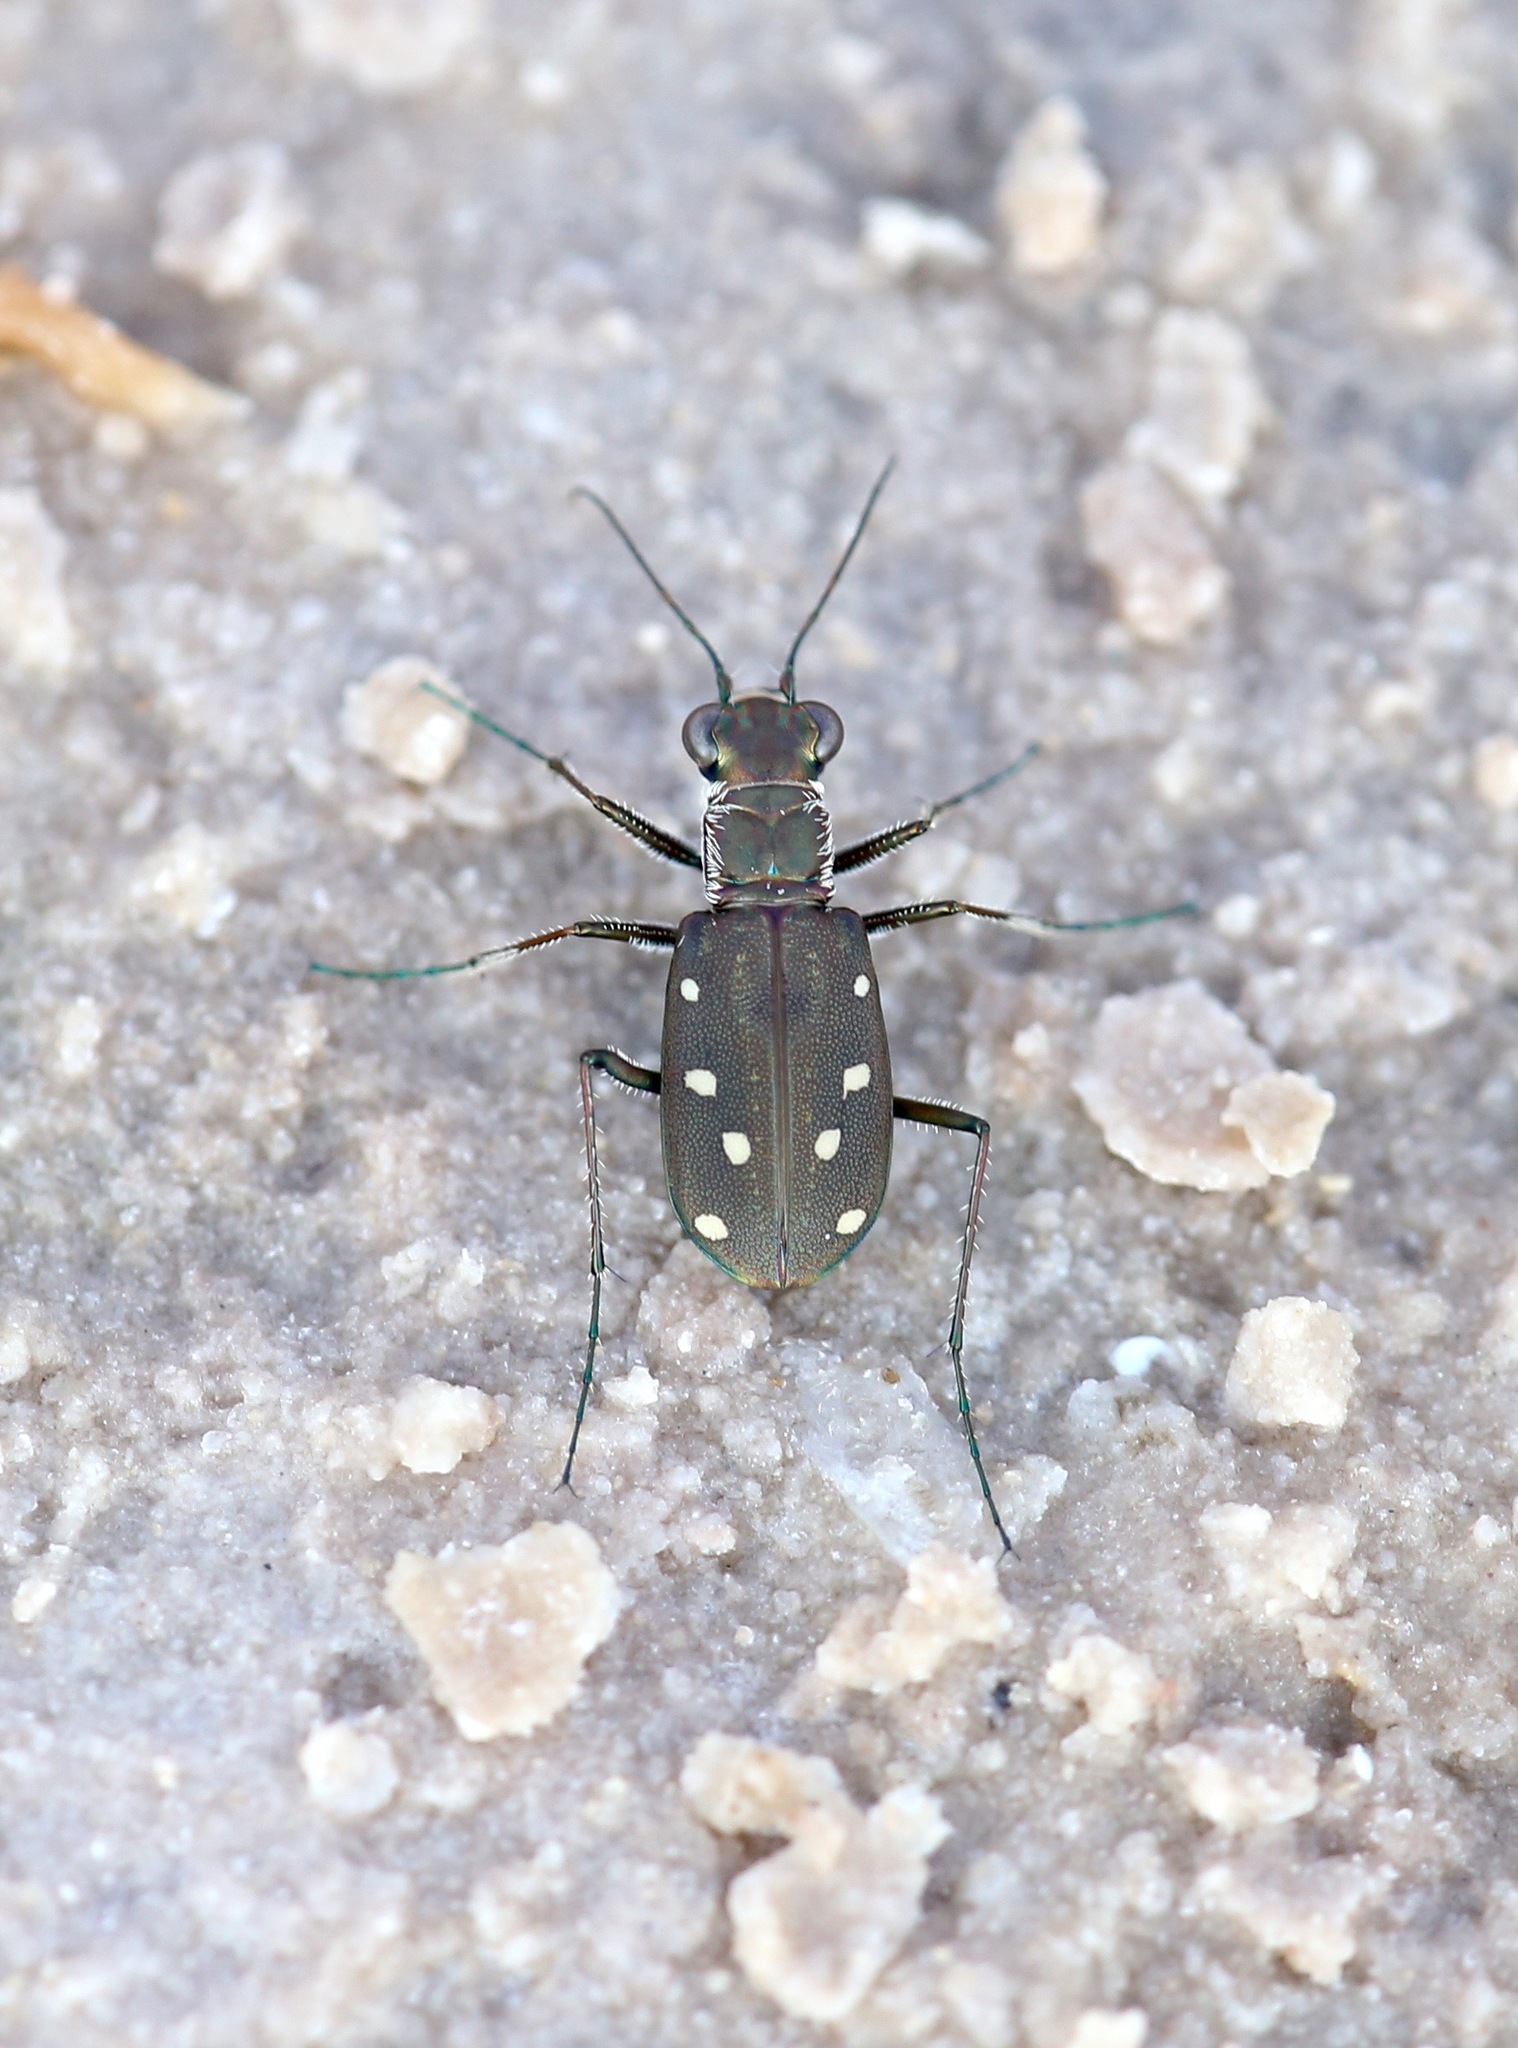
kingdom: Animalia
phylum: Arthropoda
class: Insecta
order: Coleoptera
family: Carabidae
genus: Cicindela
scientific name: Cicindela ocellata
